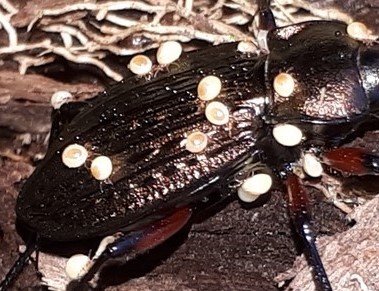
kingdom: Animalia
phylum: Arthropoda
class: Arachnida
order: Mesostigmata
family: Ologamasidae
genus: Stylochirus
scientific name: Stylochirus fimetarius
